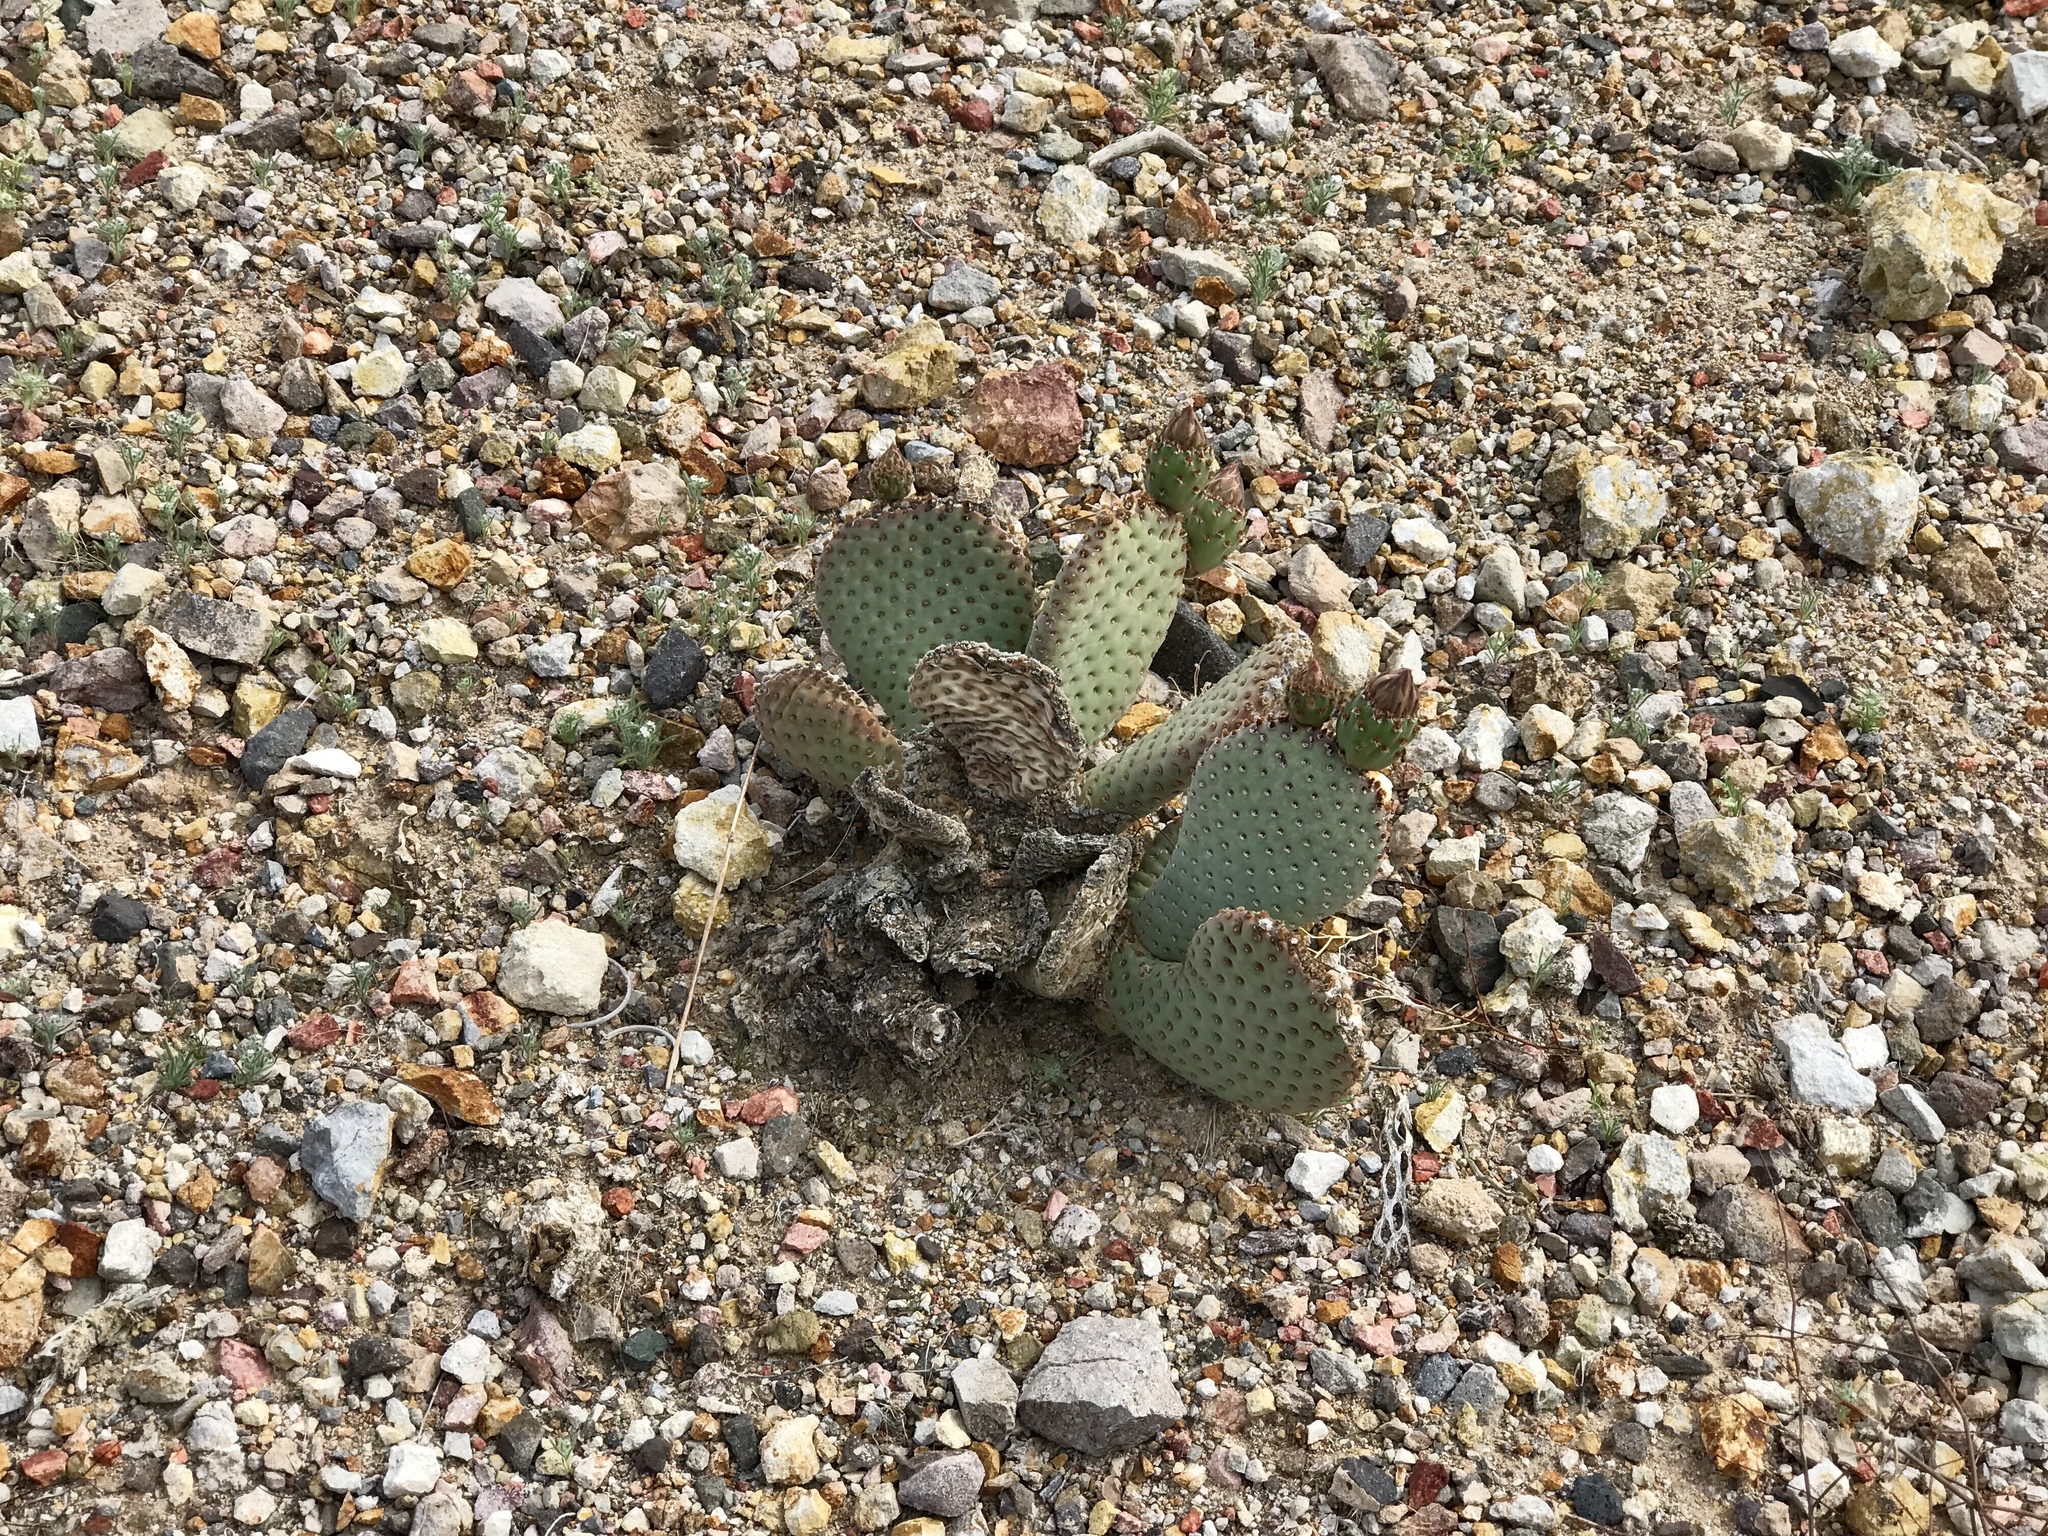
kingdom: Plantae
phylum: Tracheophyta
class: Magnoliopsida
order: Caryophyllales
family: Cactaceae
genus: Opuntia
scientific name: Opuntia basilaris
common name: Beavertail prickly-pear
